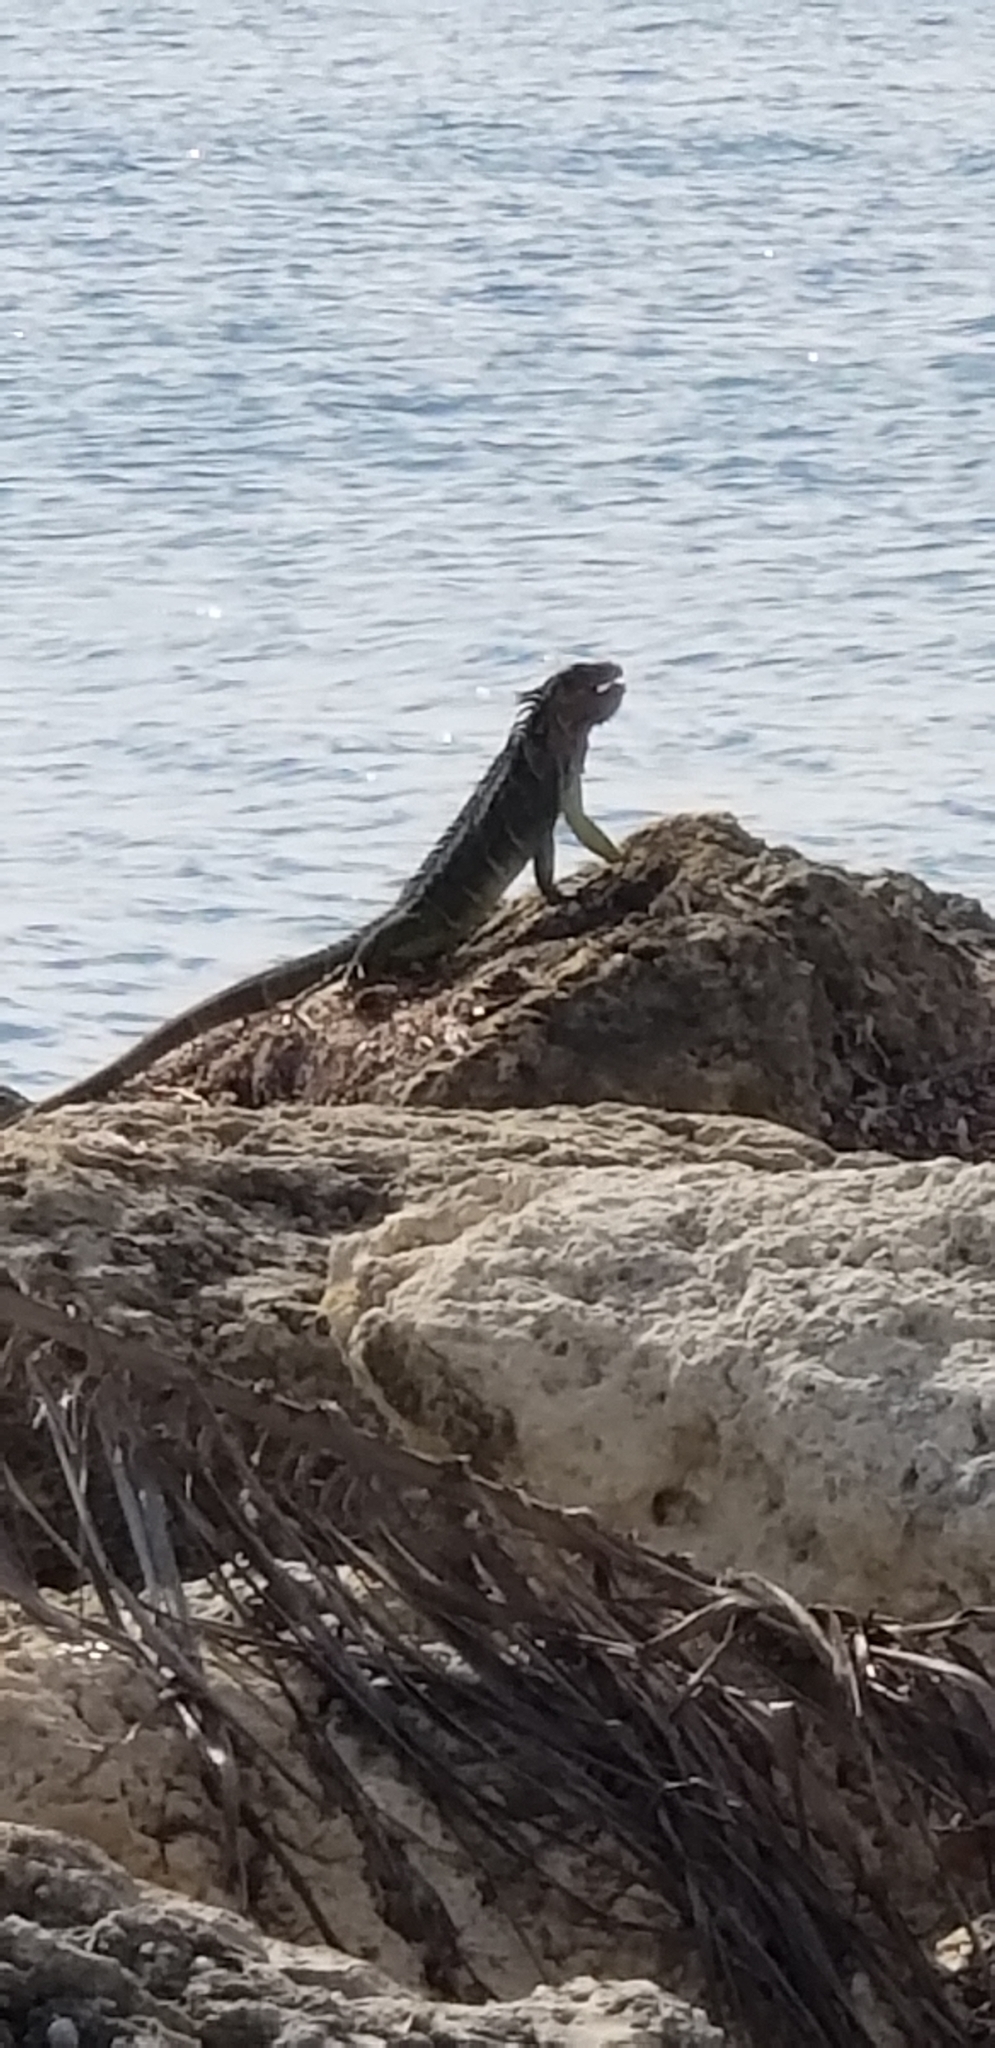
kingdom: Animalia
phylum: Chordata
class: Squamata
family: Iguanidae
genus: Iguana
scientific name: Iguana iguana
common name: Green iguana
